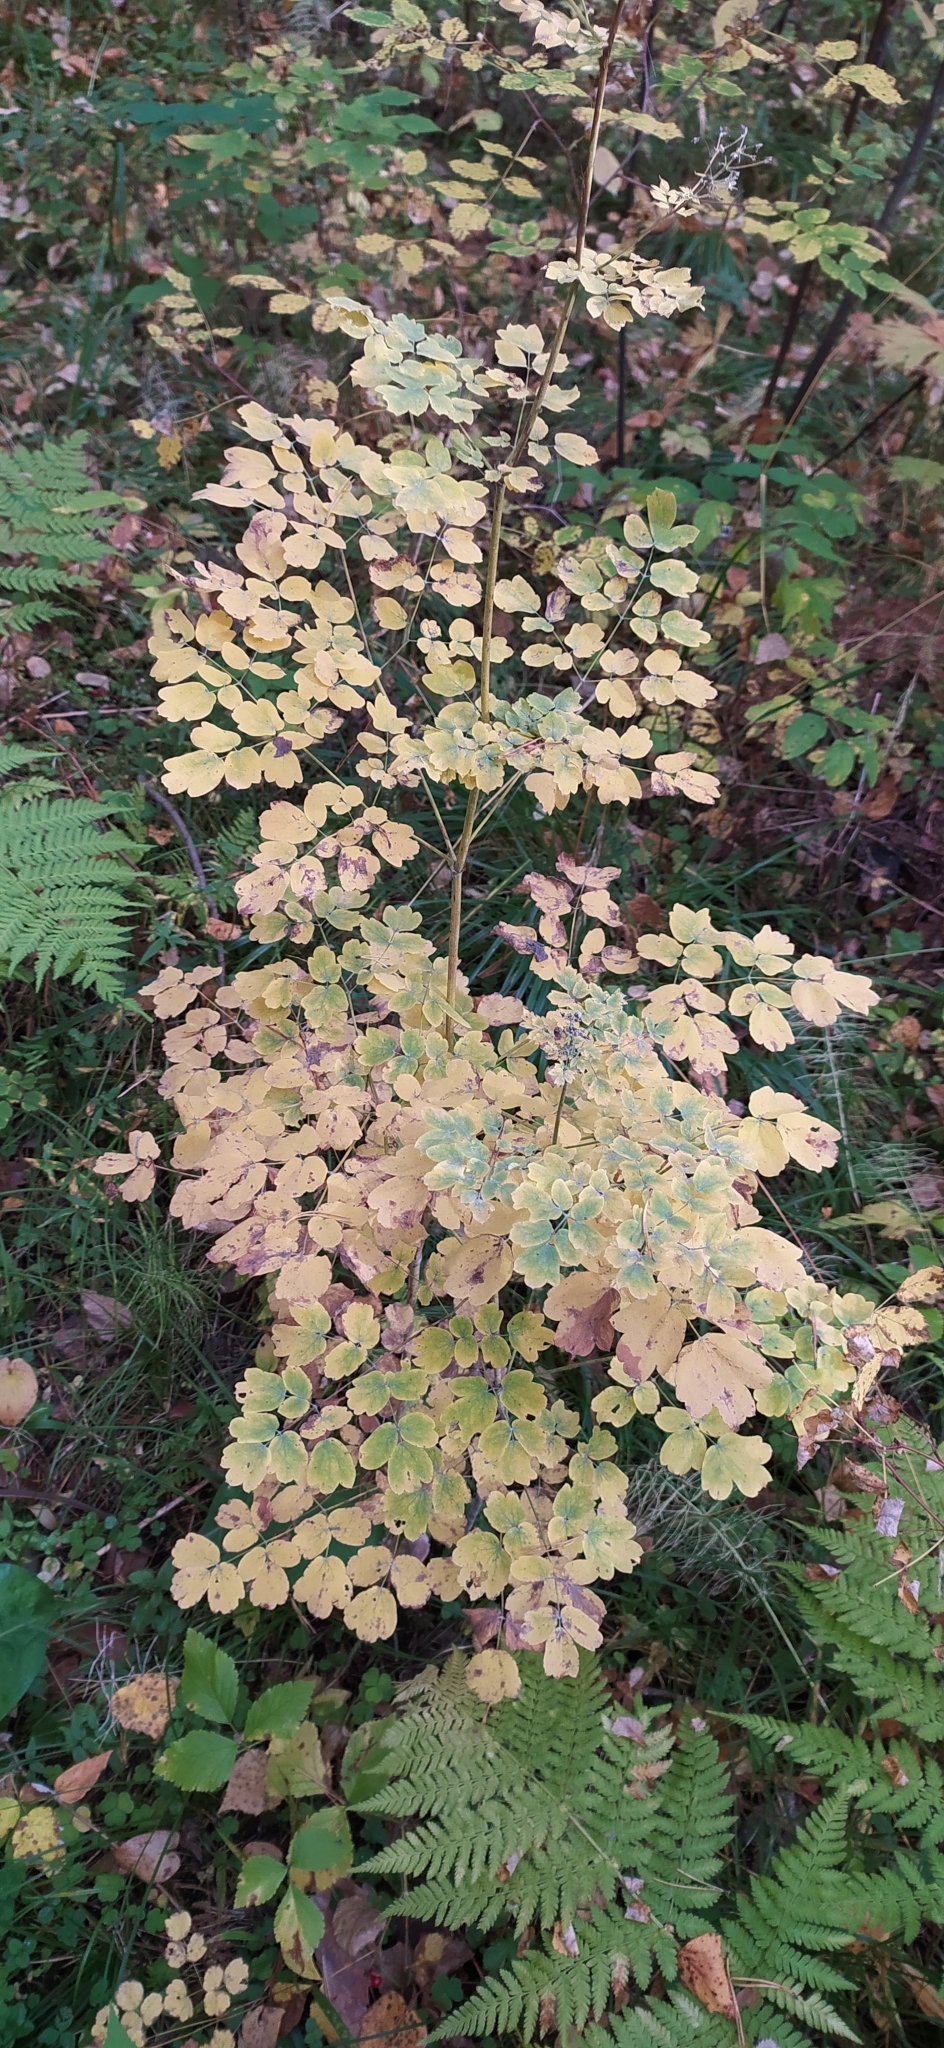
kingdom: Plantae
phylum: Tracheophyta
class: Magnoliopsida
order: Ranunculales
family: Ranunculaceae
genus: Thalictrum
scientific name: Thalictrum minus
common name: Lesser meadow-rue
